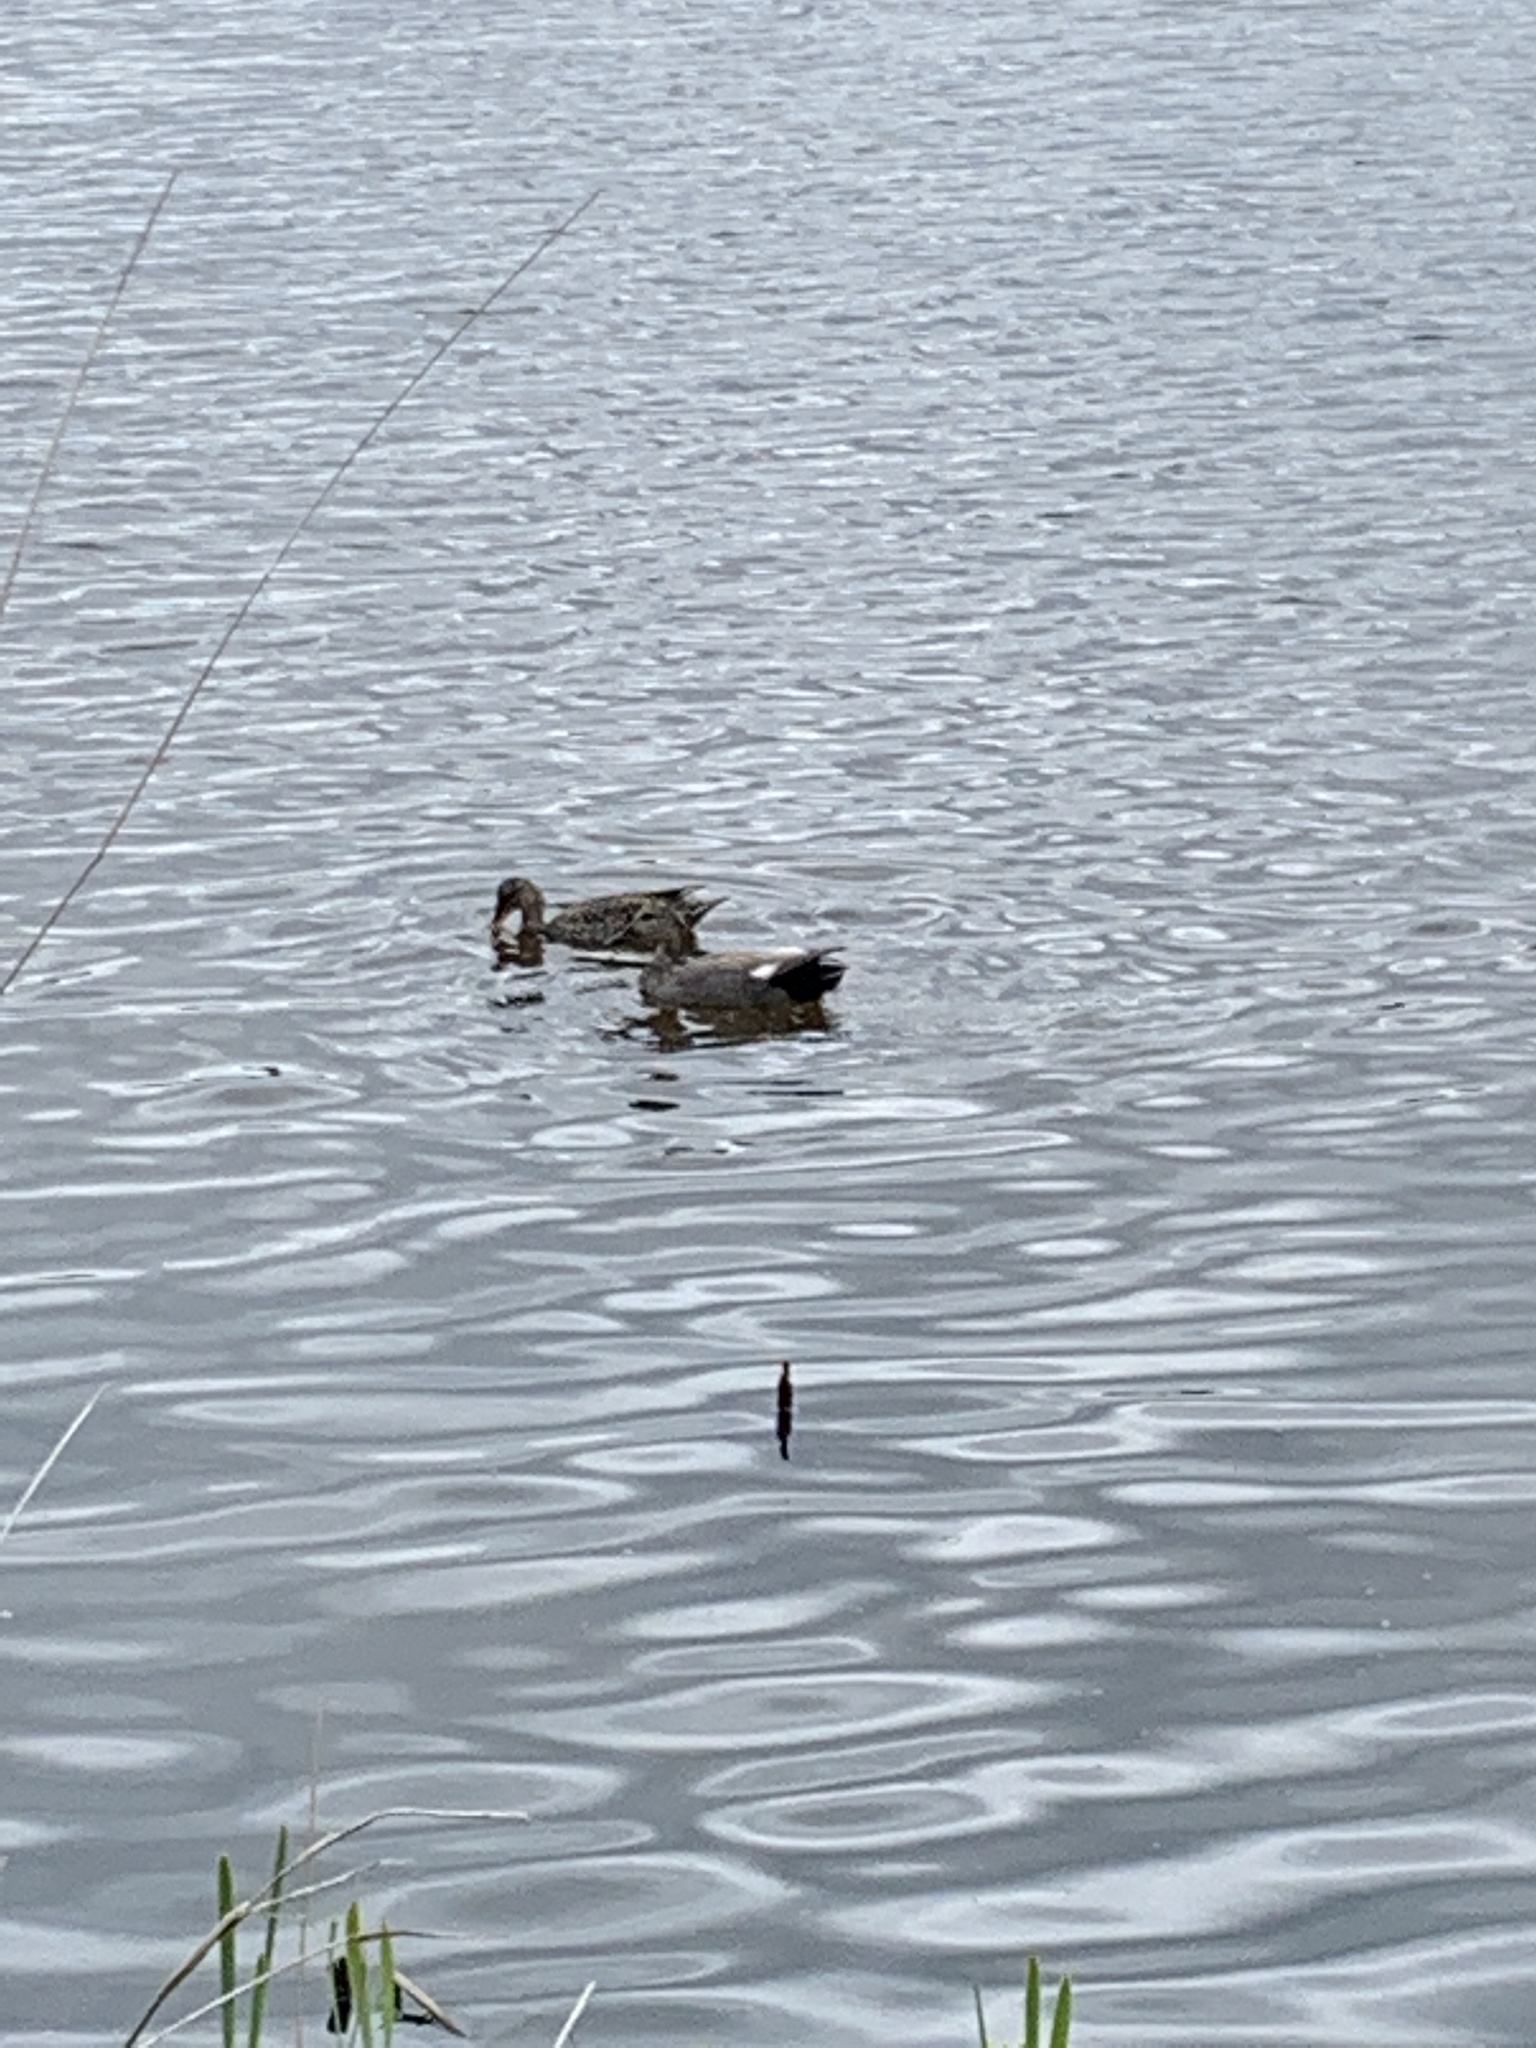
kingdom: Animalia
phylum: Chordata
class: Aves
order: Anseriformes
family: Anatidae
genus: Mareca
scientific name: Mareca strepera
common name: Gadwall
